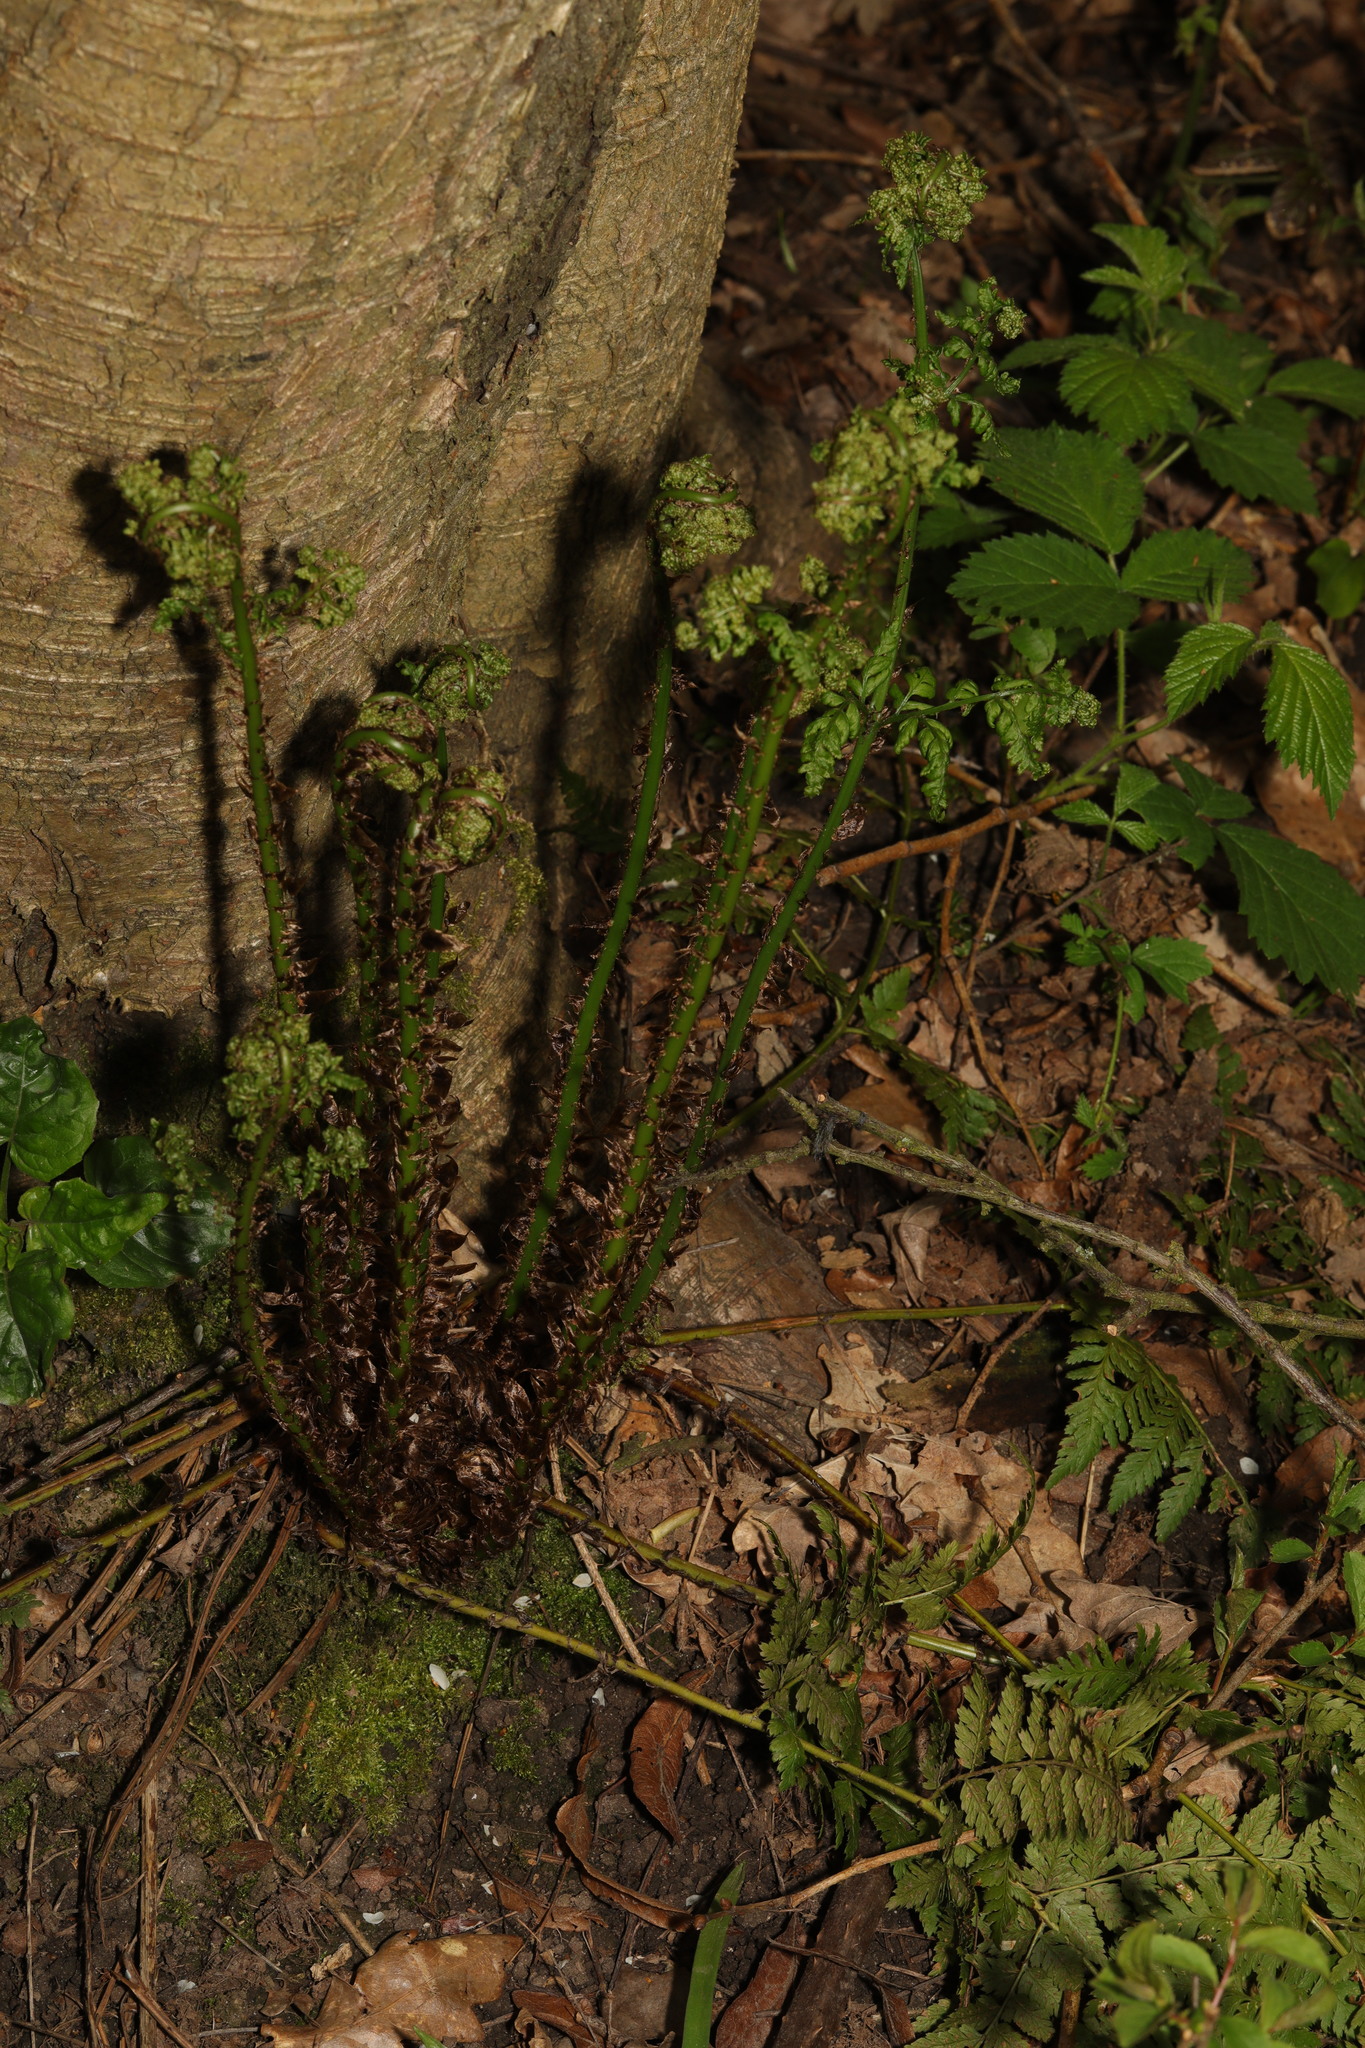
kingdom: Plantae
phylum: Tracheophyta
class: Polypodiopsida
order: Polypodiales
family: Dryopteridaceae
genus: Dryopteris
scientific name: Dryopteris dilatata
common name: Broad buckler-fern
